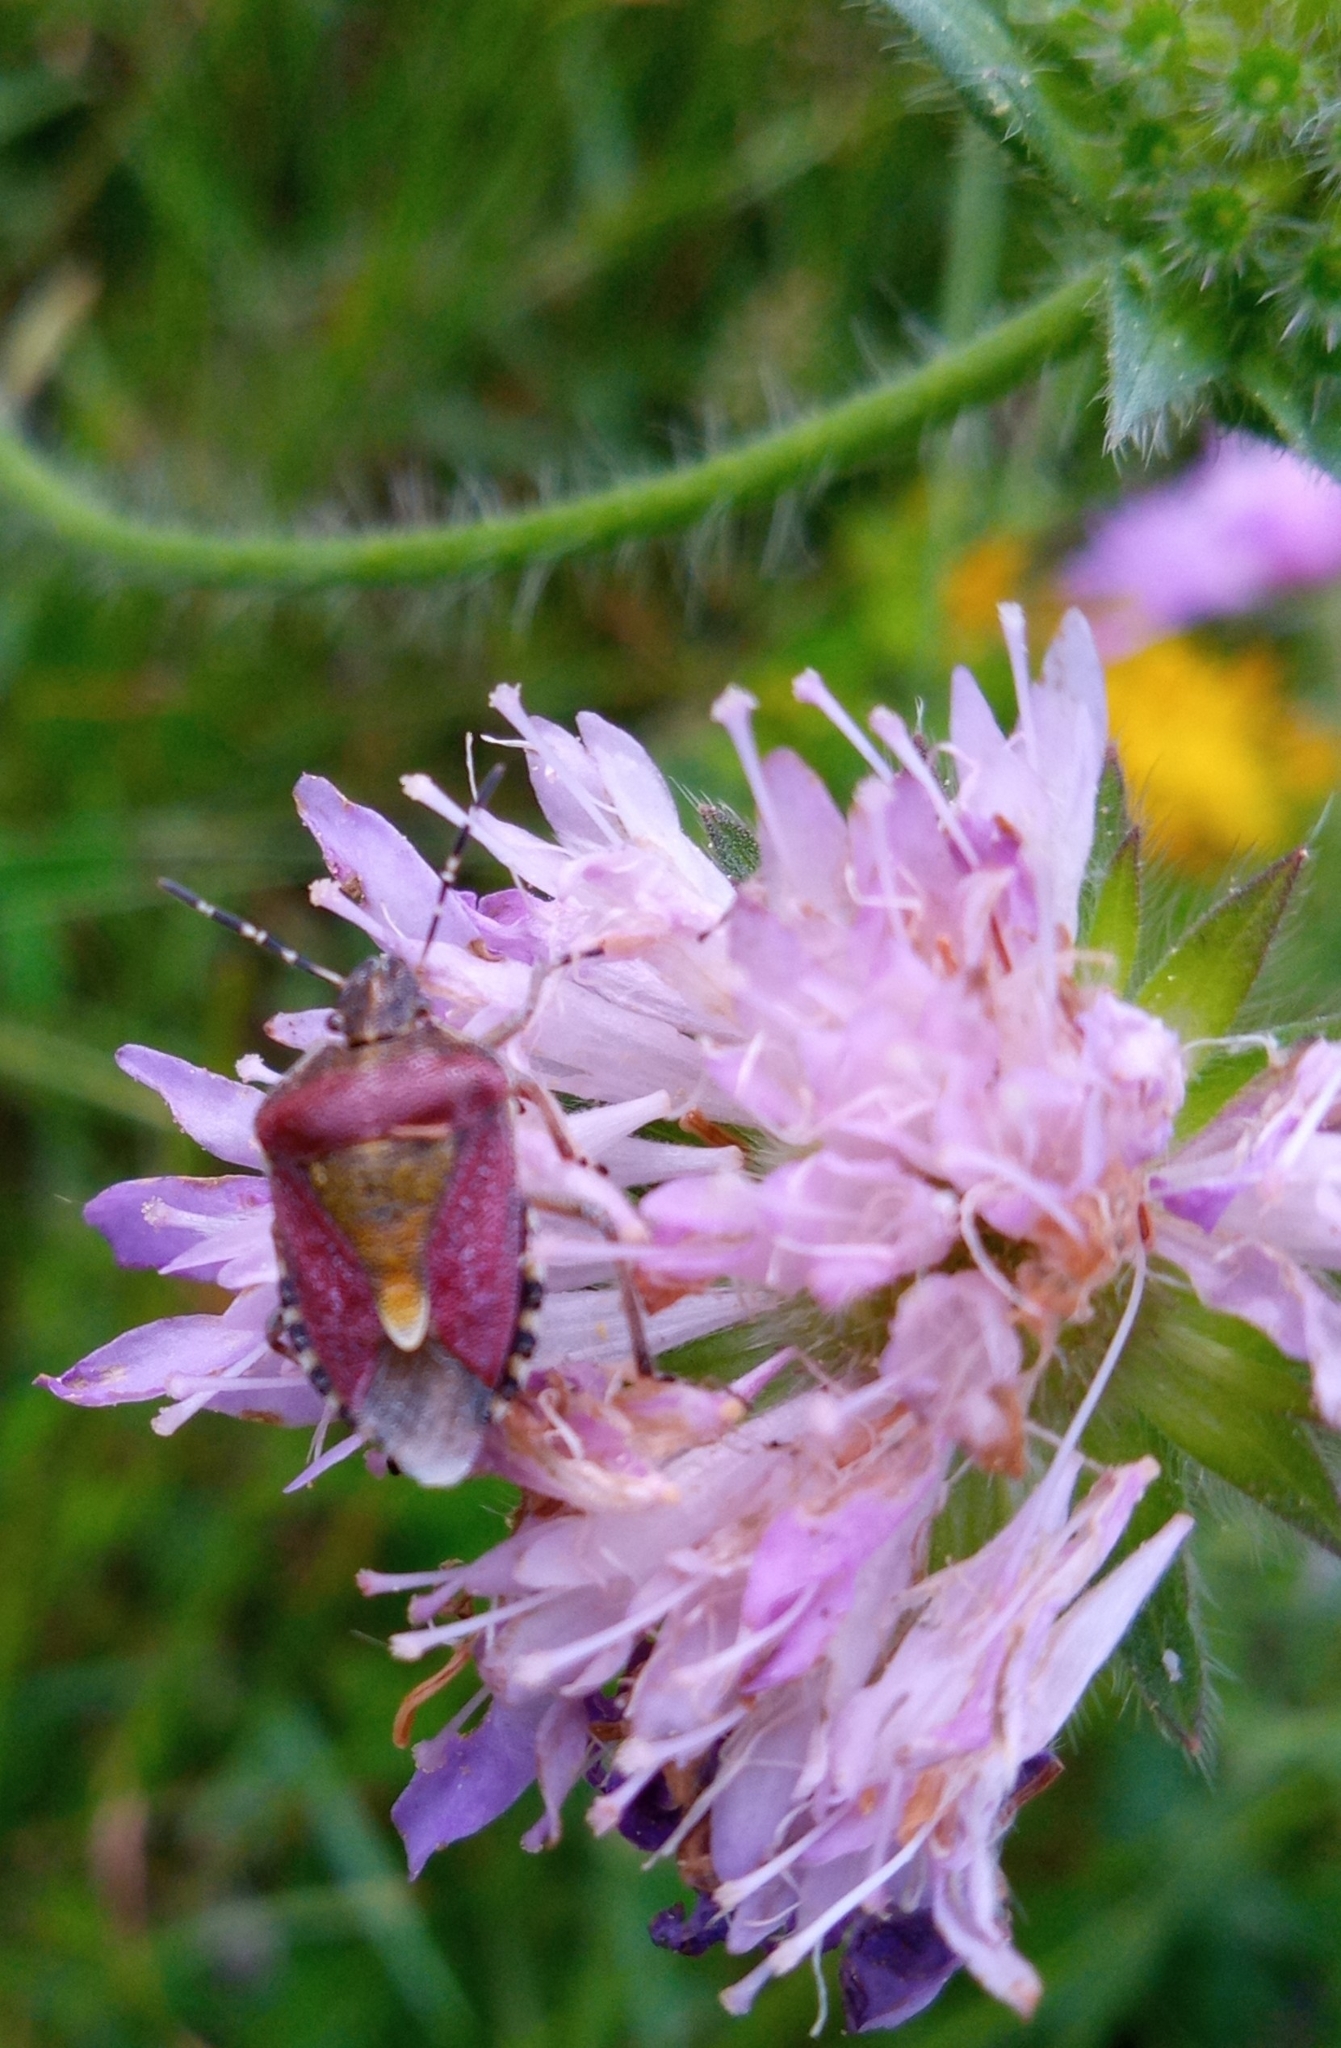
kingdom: Animalia
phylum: Arthropoda
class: Insecta
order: Hemiptera
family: Pentatomidae
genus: Dolycoris
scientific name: Dolycoris baccarum
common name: Sloe bug
